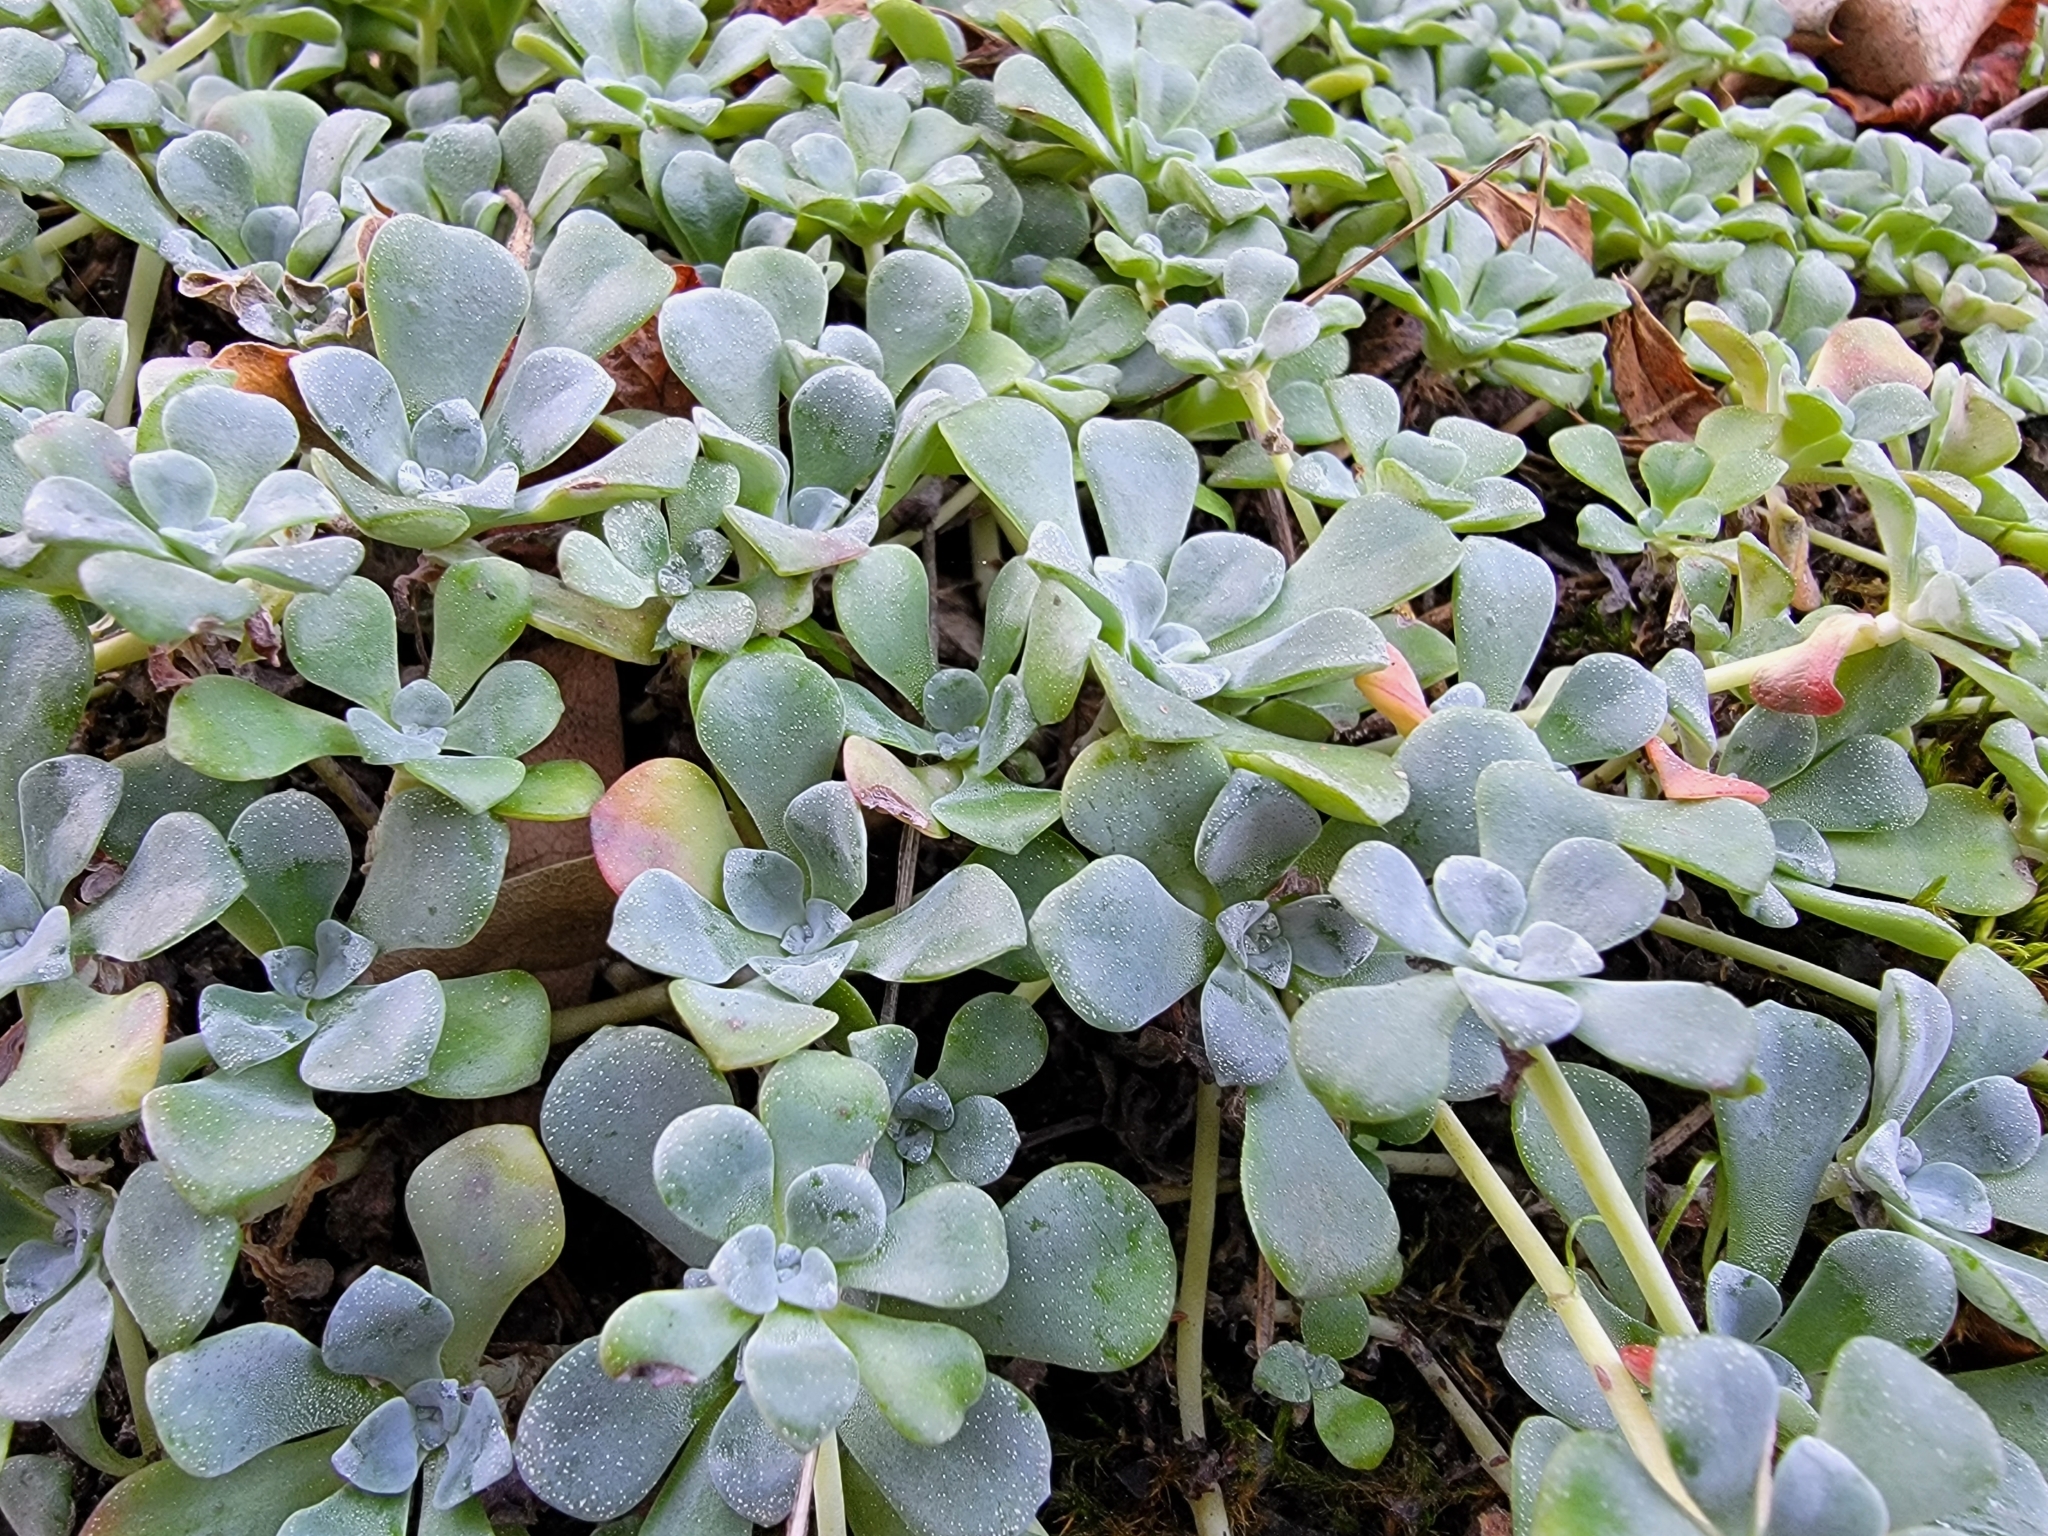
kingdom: Plantae
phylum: Tracheophyta
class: Magnoliopsida
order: Saxifragales
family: Crassulaceae
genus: Sedum
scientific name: Sedum spathulifolium
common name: Colorado stonecrop
